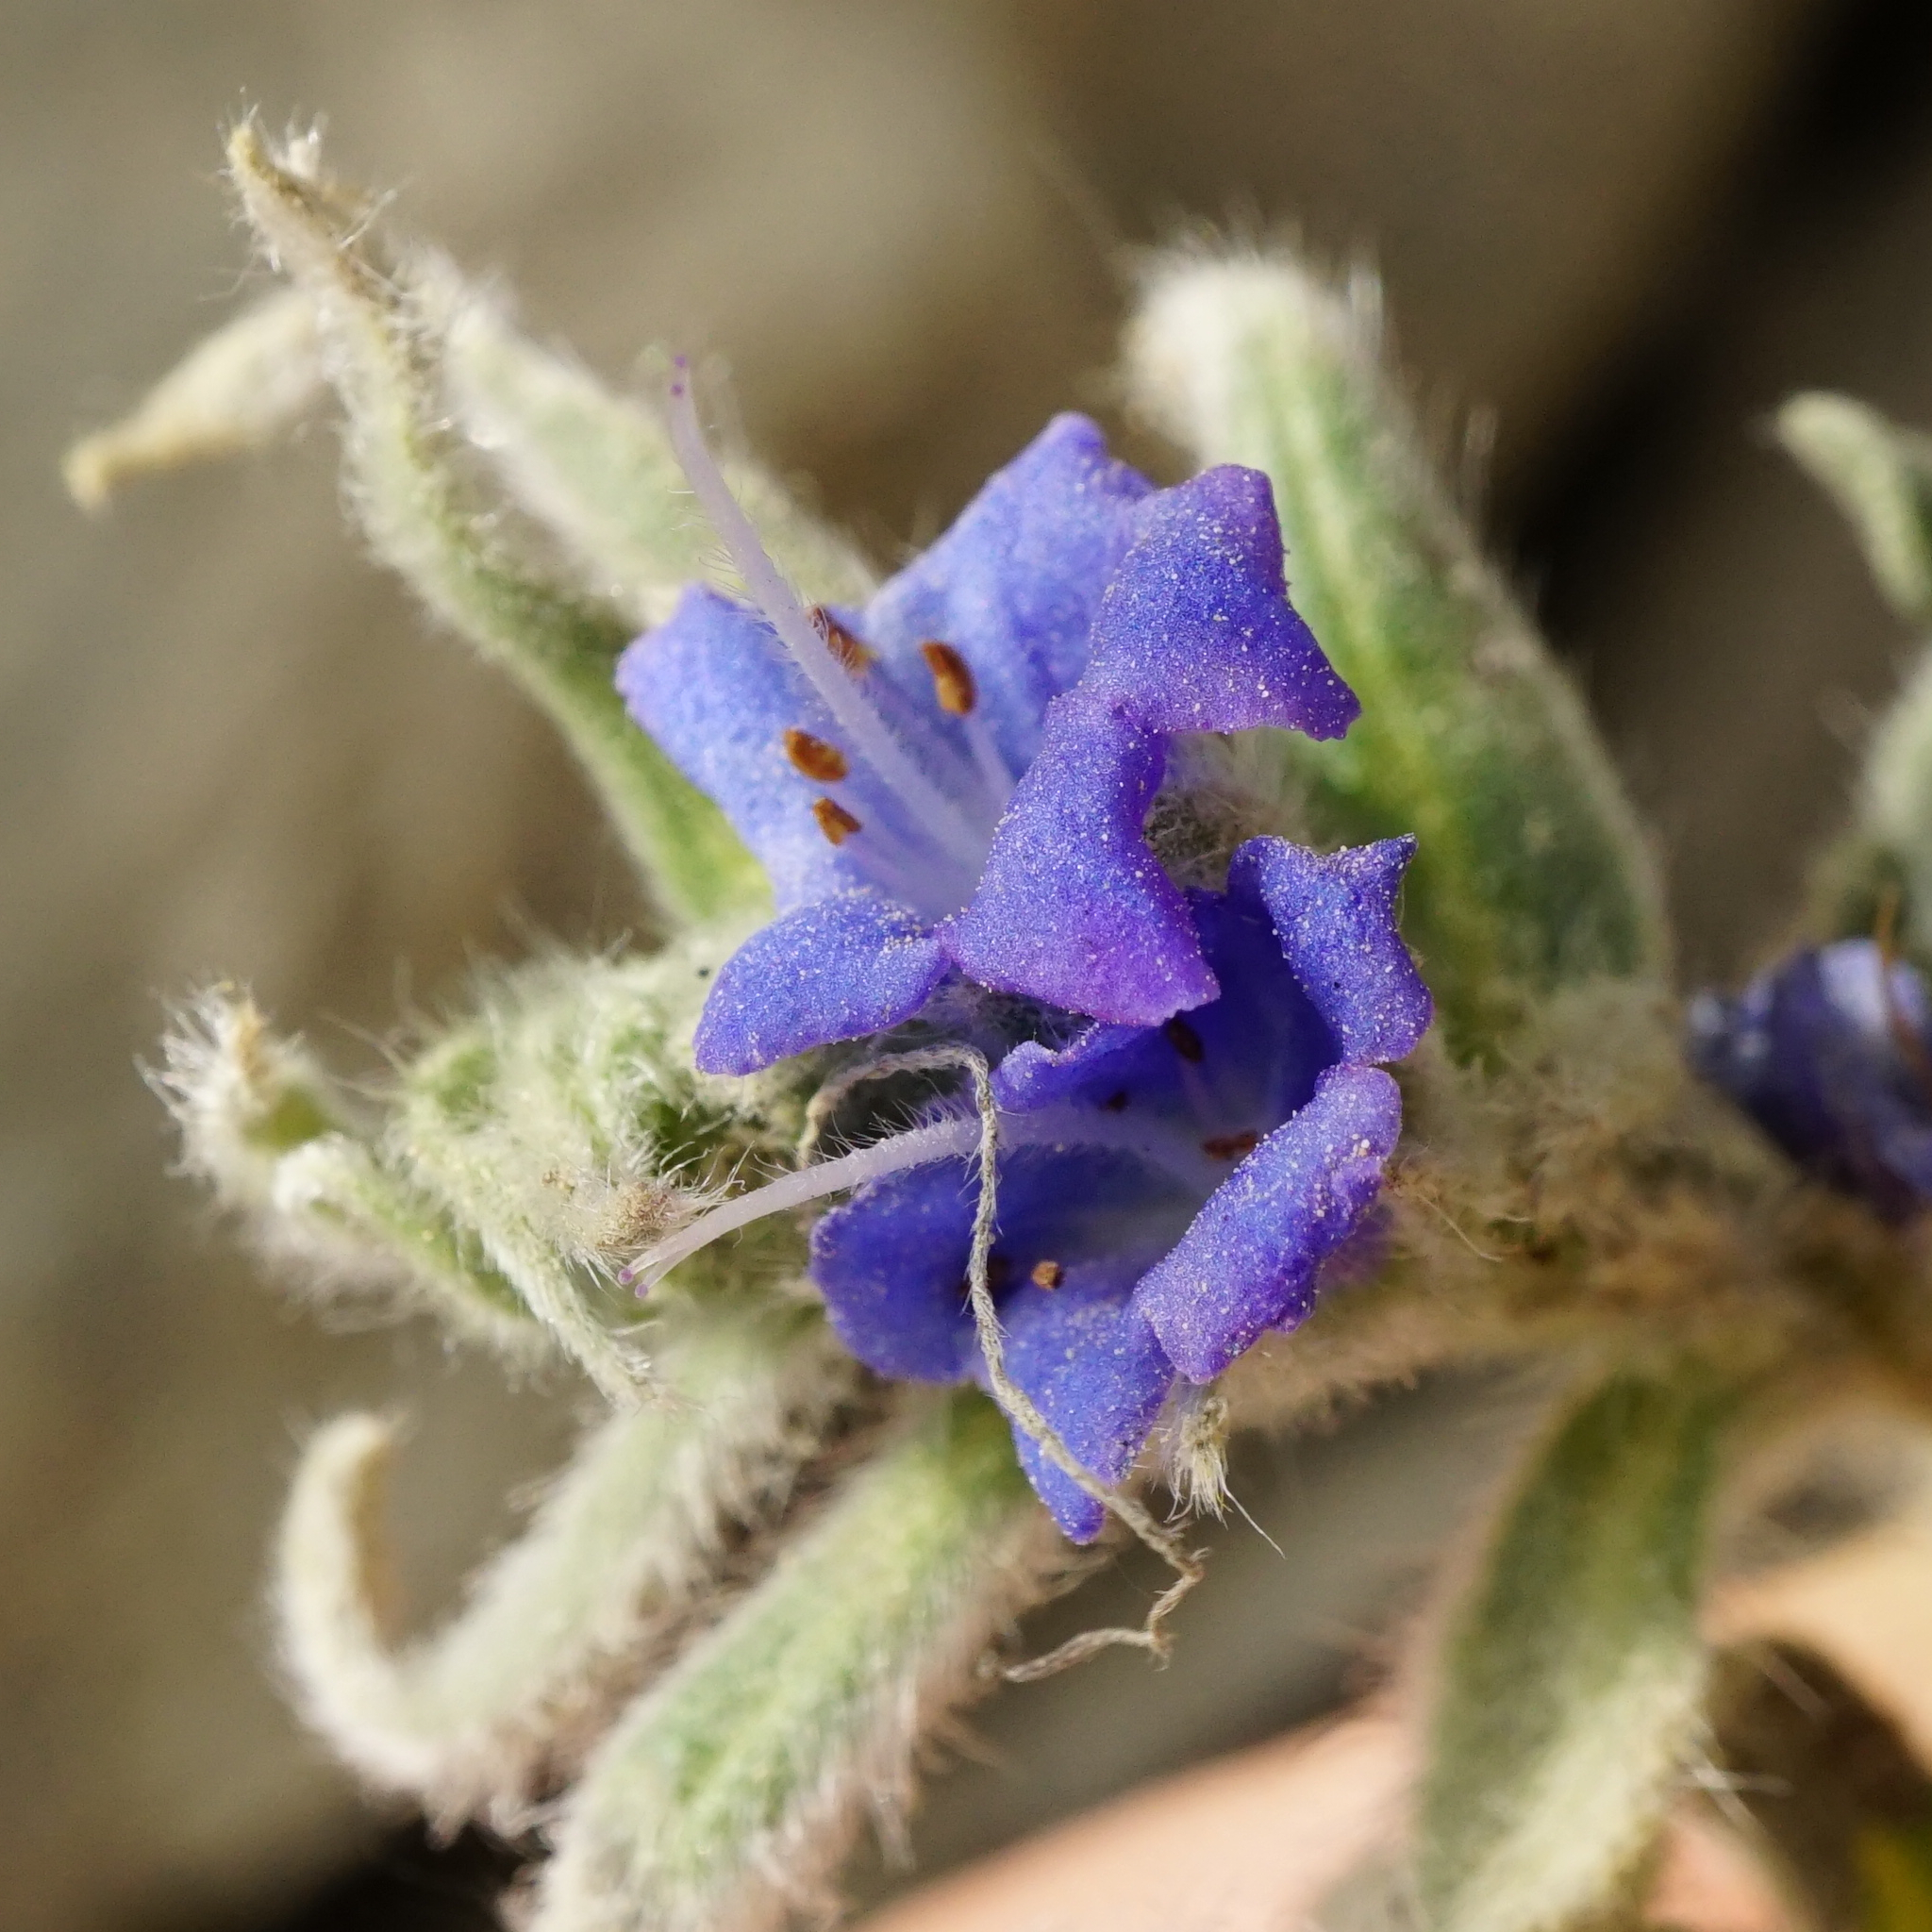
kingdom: Plantae
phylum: Tracheophyta
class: Magnoliopsida
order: Boraginales
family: Boraginaceae
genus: Echium
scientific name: Echium vulgare
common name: Common viper's bugloss
